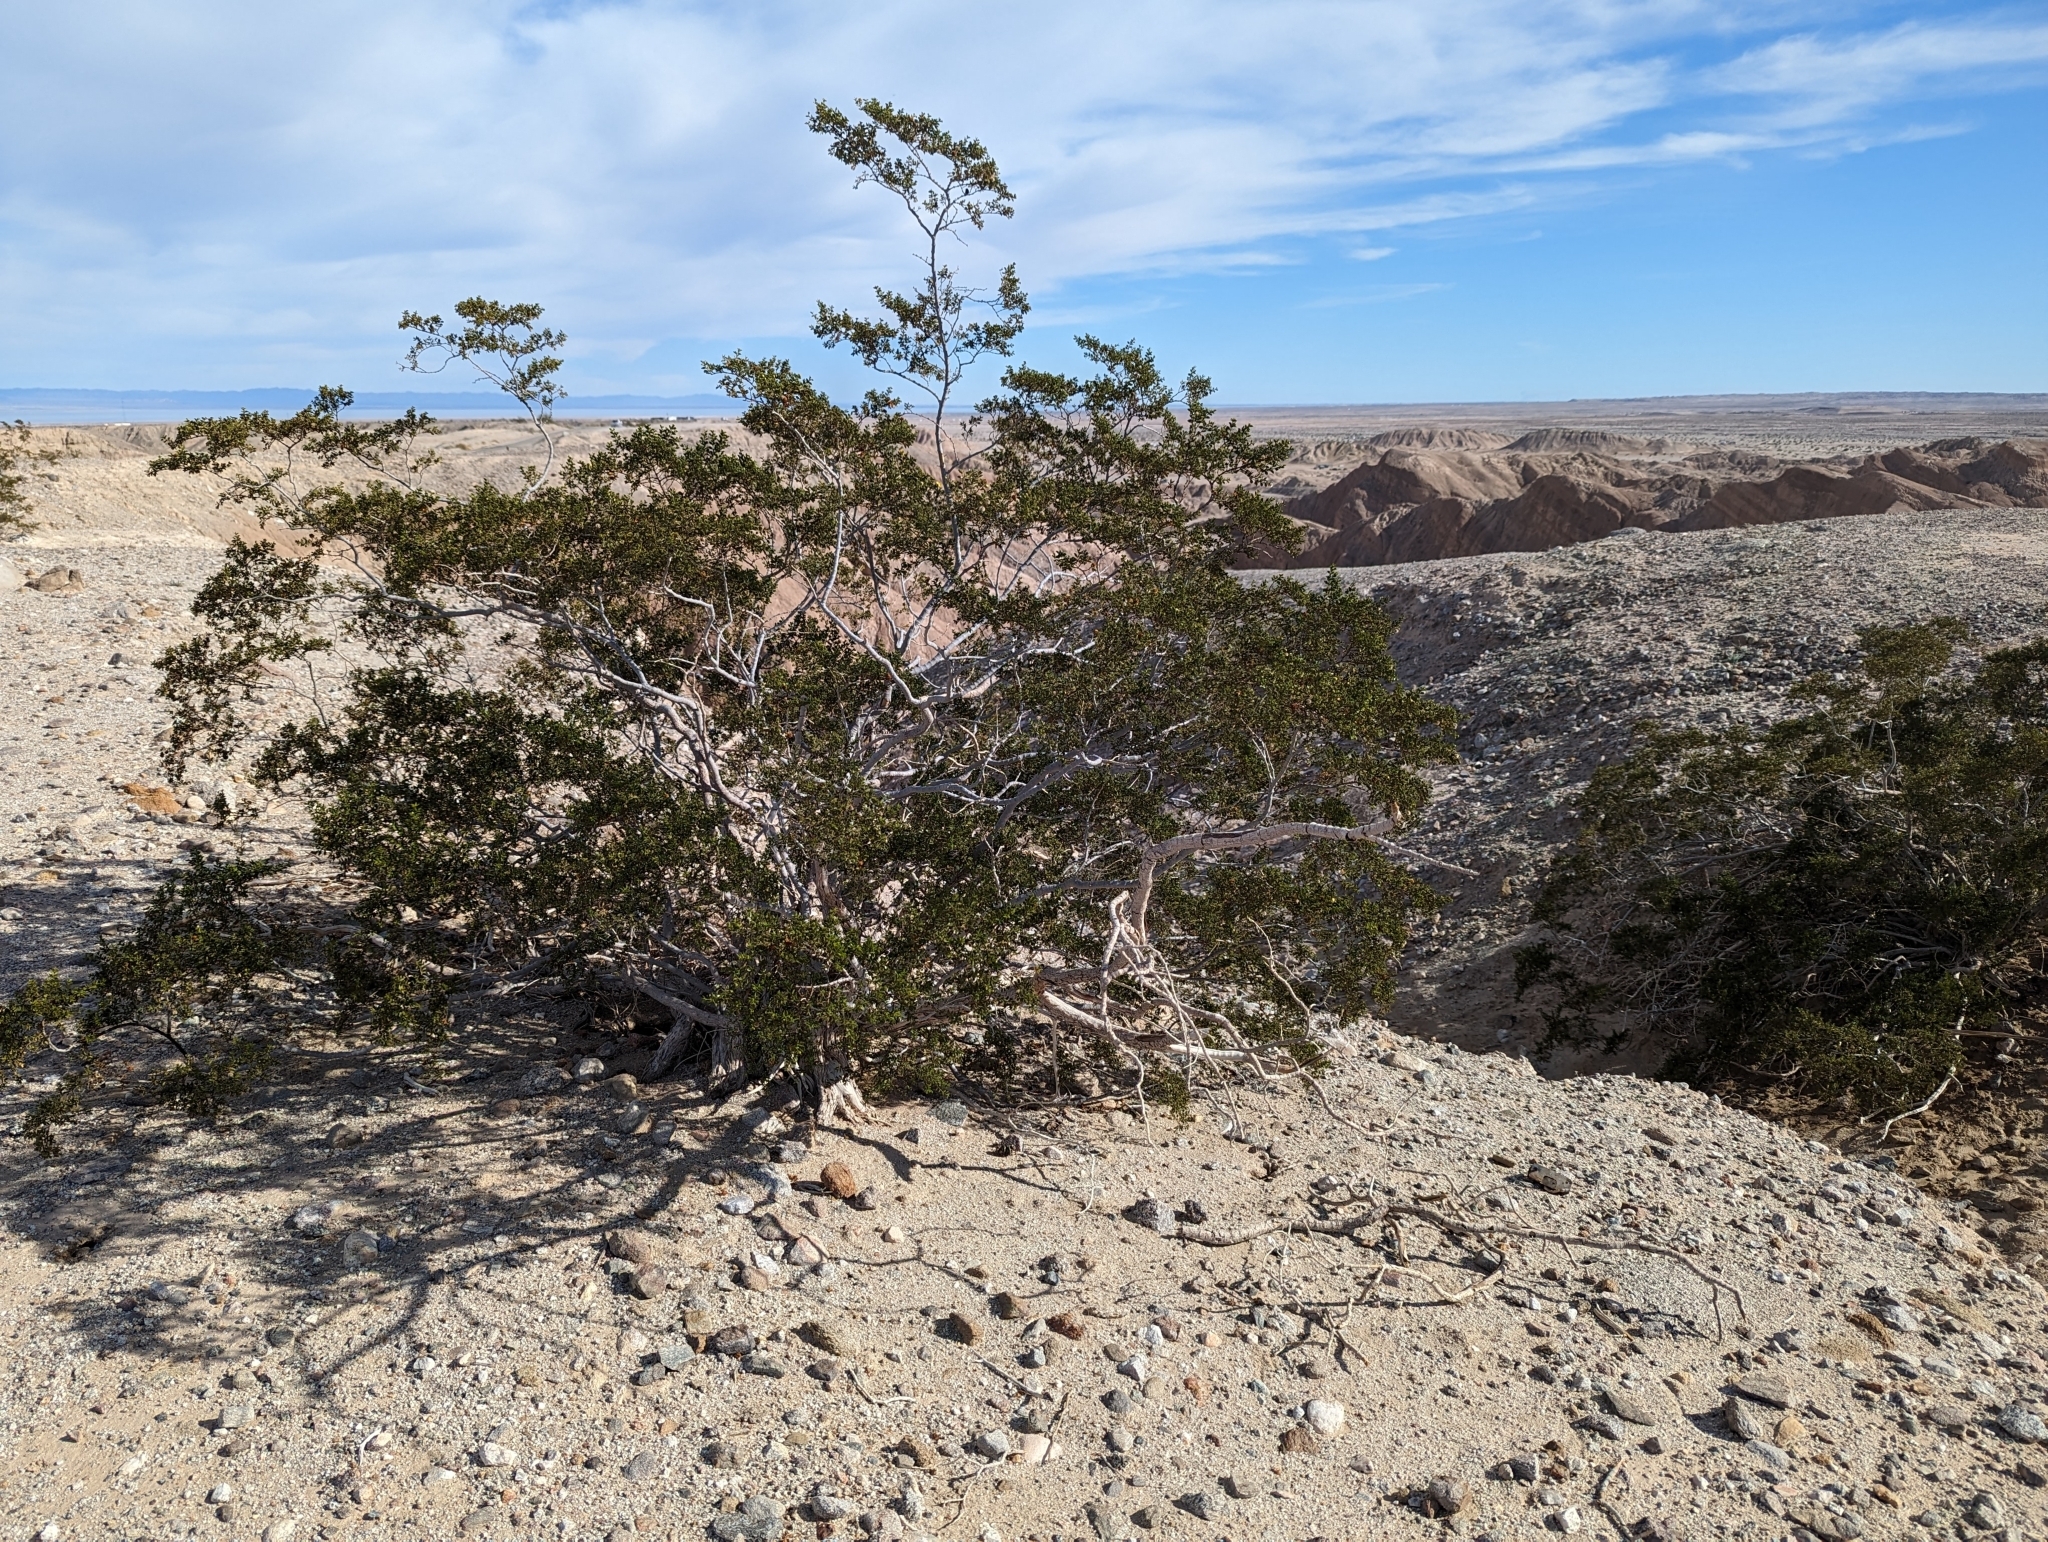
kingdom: Plantae
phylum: Tracheophyta
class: Magnoliopsida
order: Zygophyllales
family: Zygophyllaceae
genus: Larrea
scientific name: Larrea tridentata
